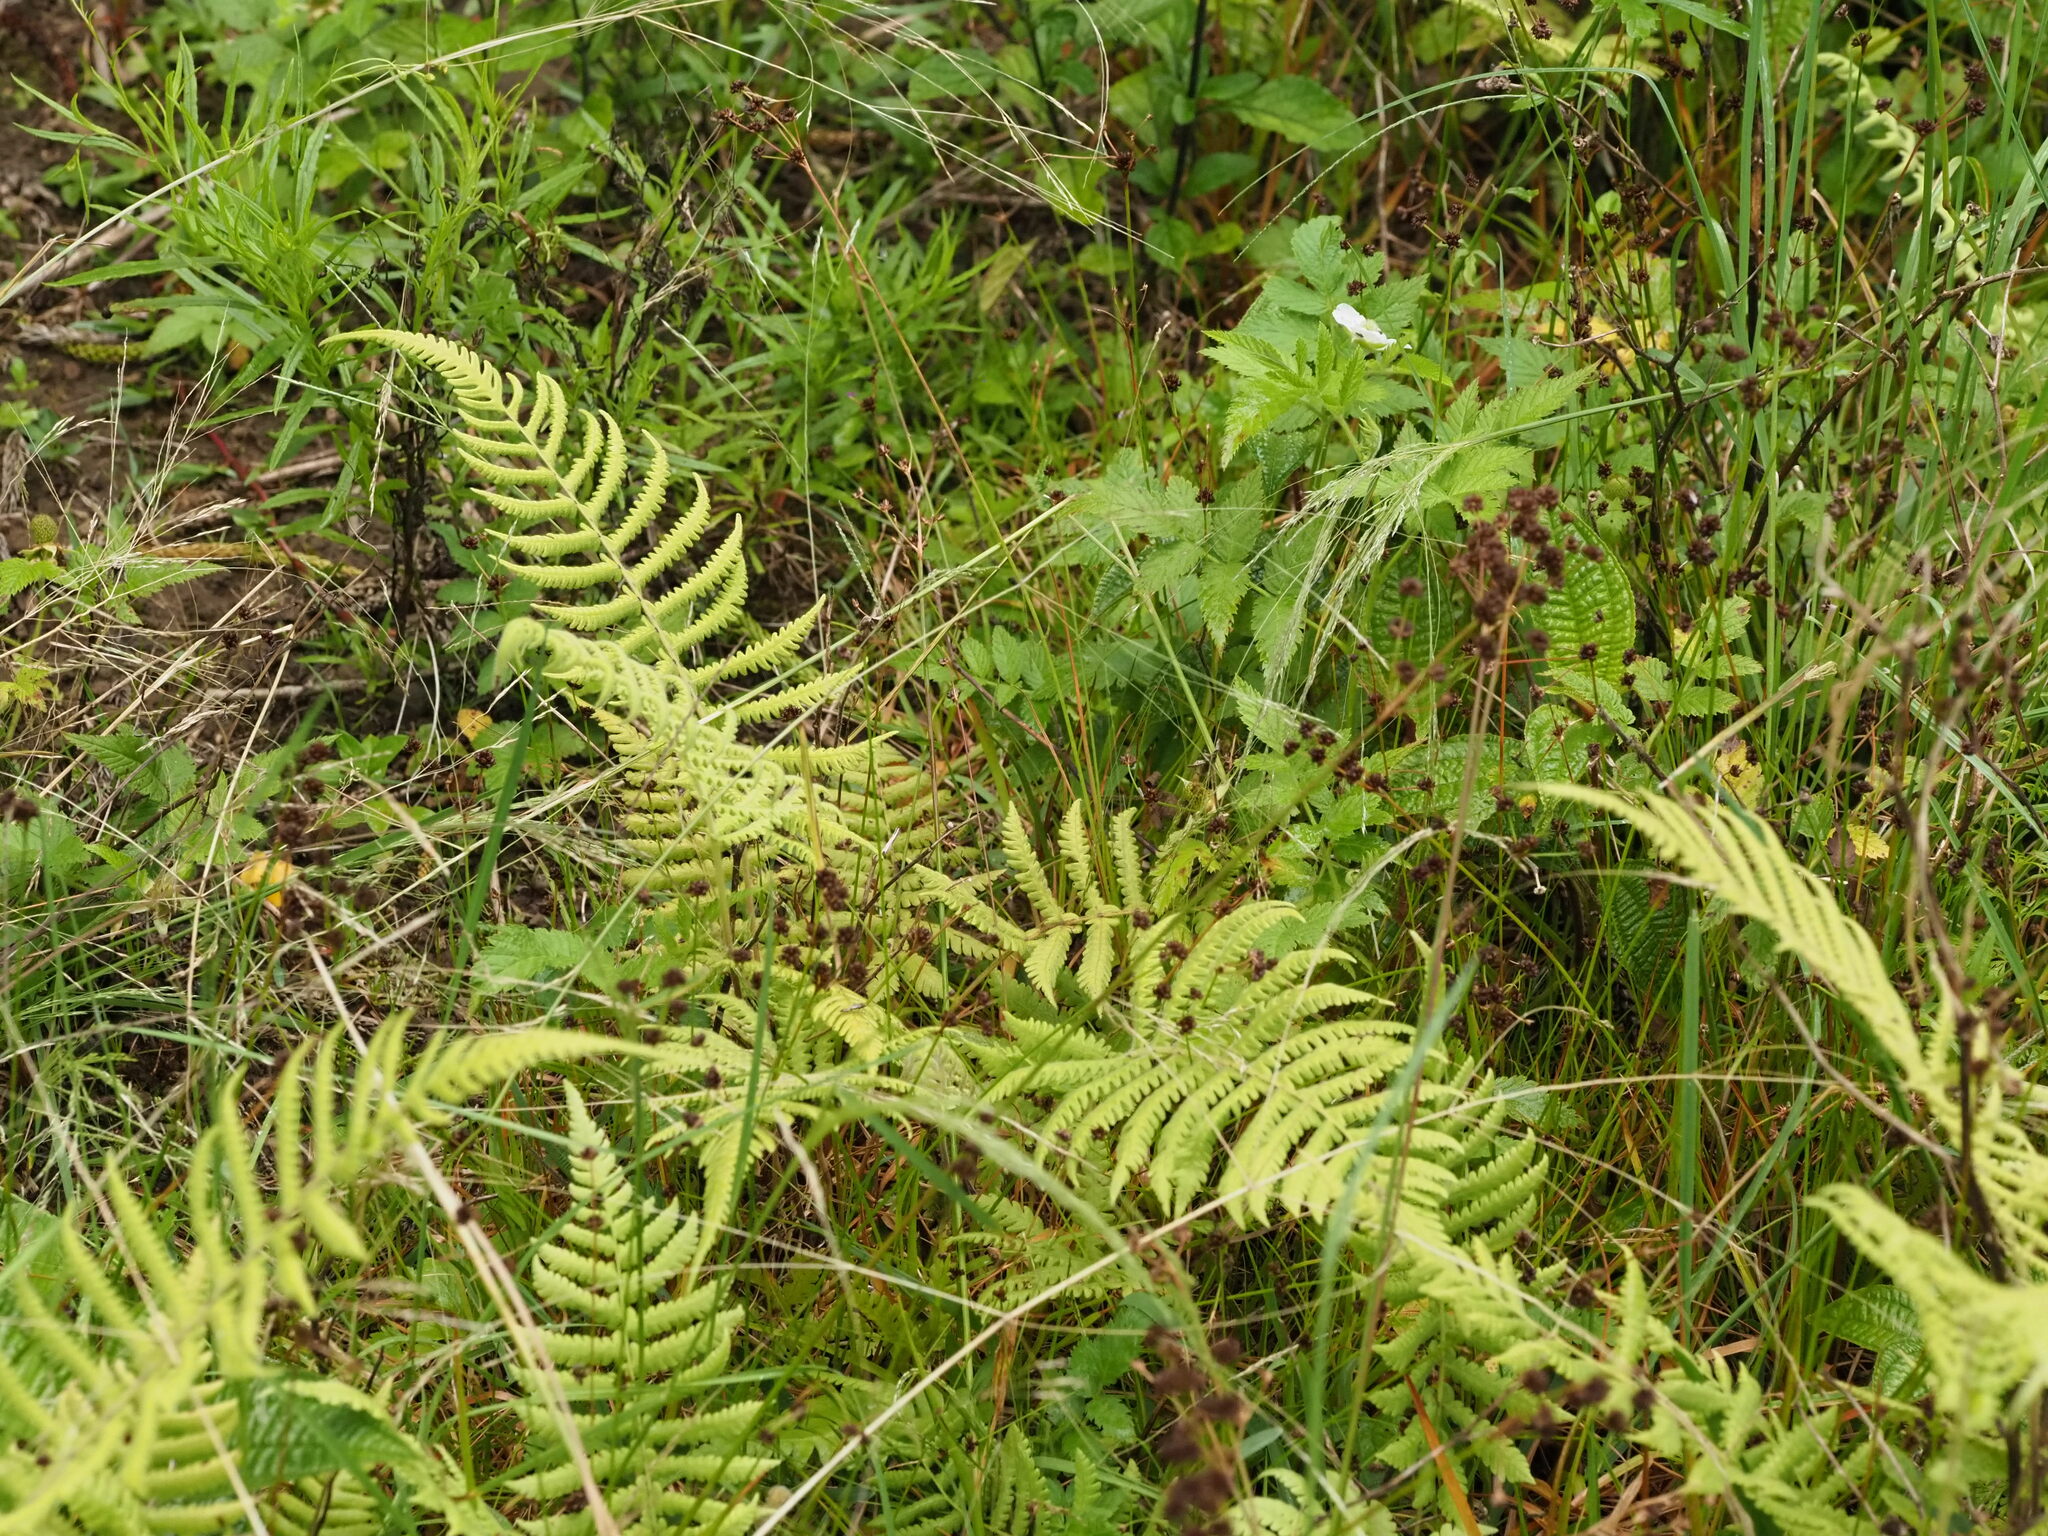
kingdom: Plantae
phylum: Tracheophyta
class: Magnoliopsida
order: Rosales
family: Rosaceae
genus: Rubus
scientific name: Rubus rosifolius
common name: Roseleaf raspberry
